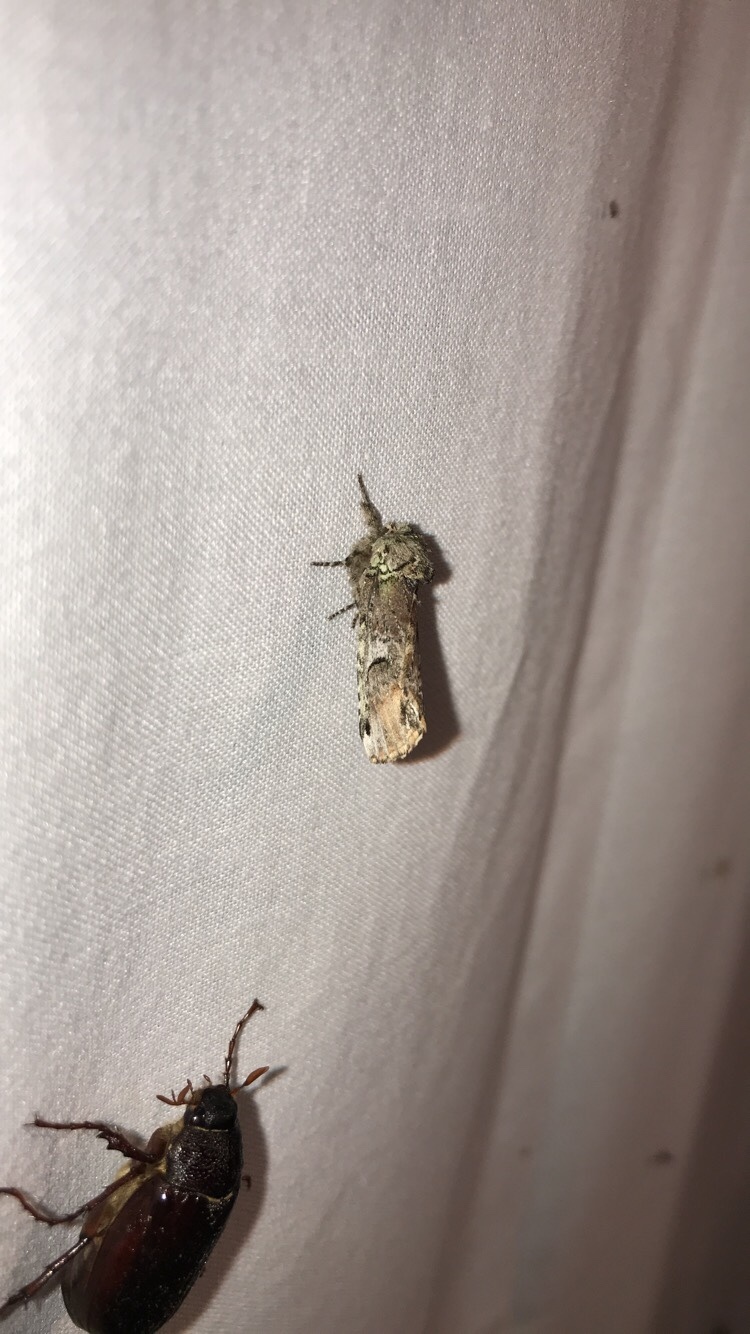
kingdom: Animalia
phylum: Arthropoda
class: Insecta
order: Lepidoptera
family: Notodontidae
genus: Schizura
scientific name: Schizura
